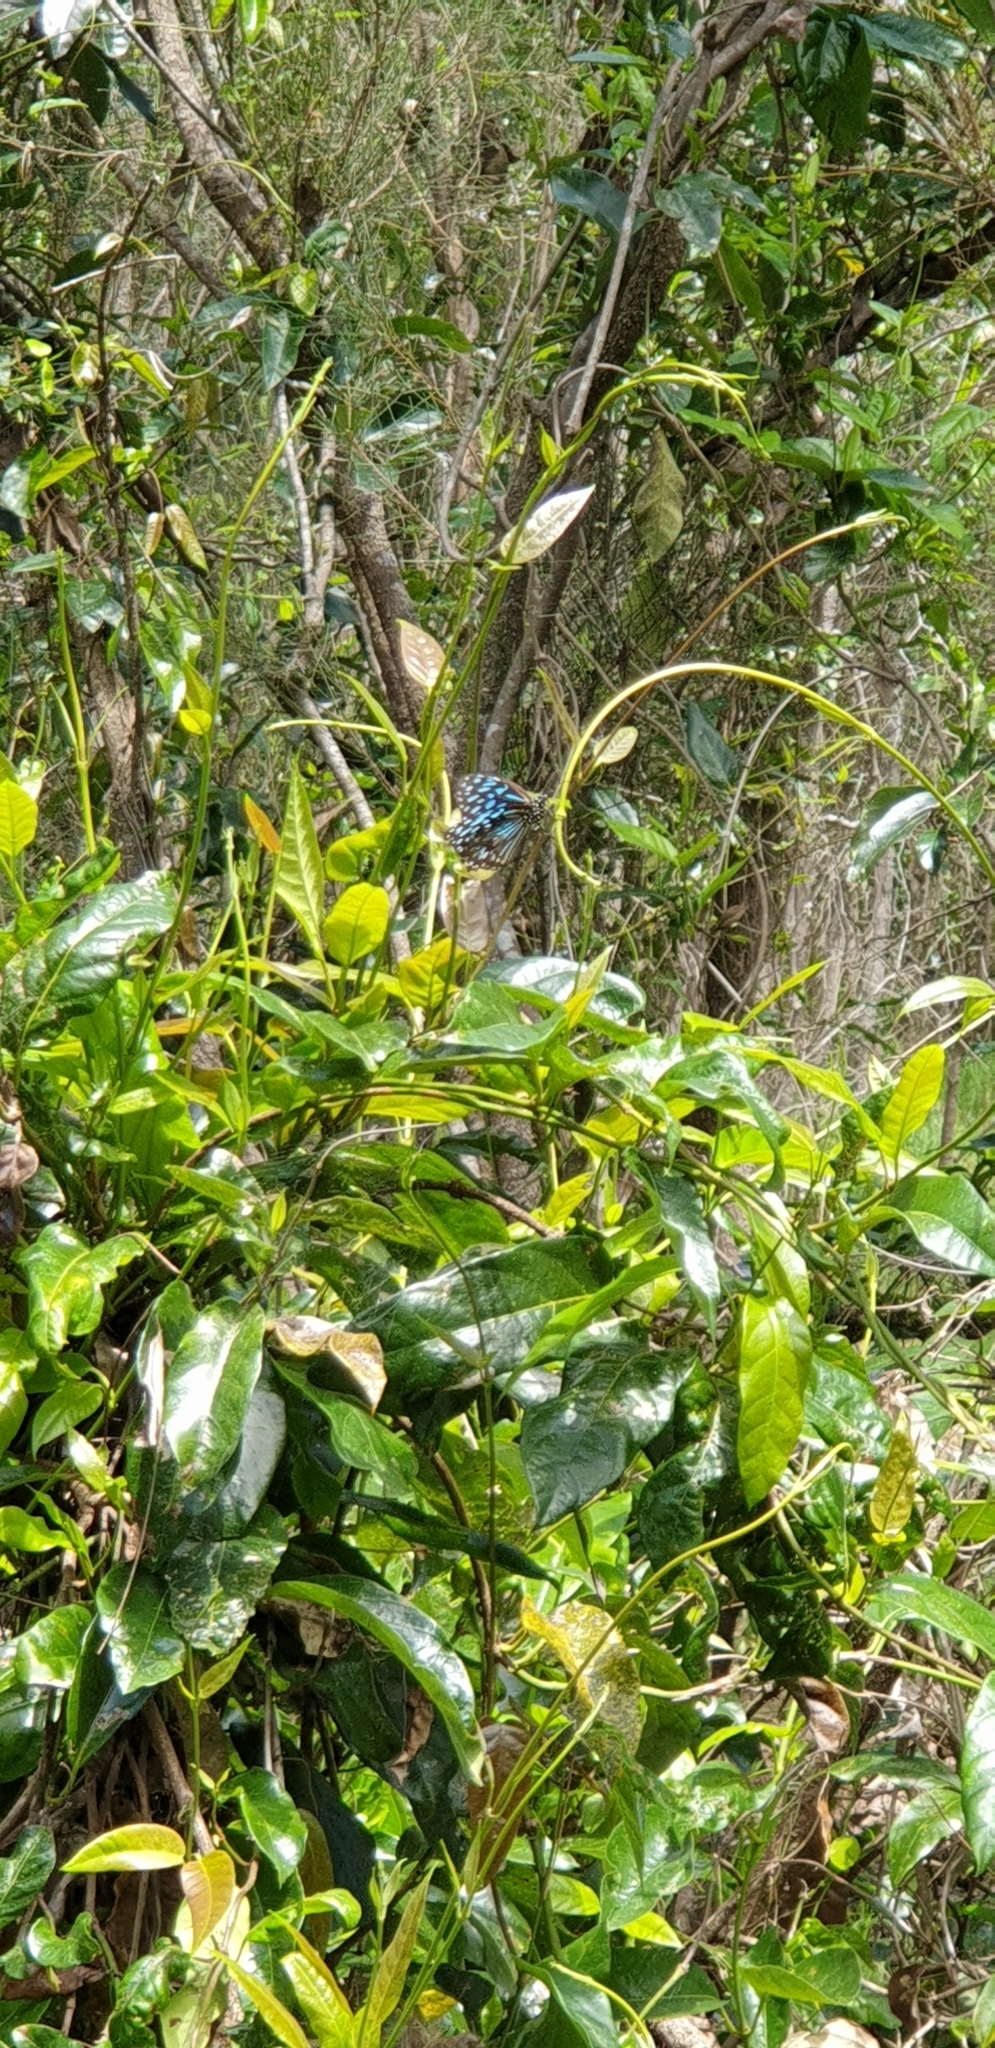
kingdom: Animalia
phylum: Arthropoda
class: Insecta
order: Lepidoptera
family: Nymphalidae
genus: Tirumala
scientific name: Tirumala hamata
